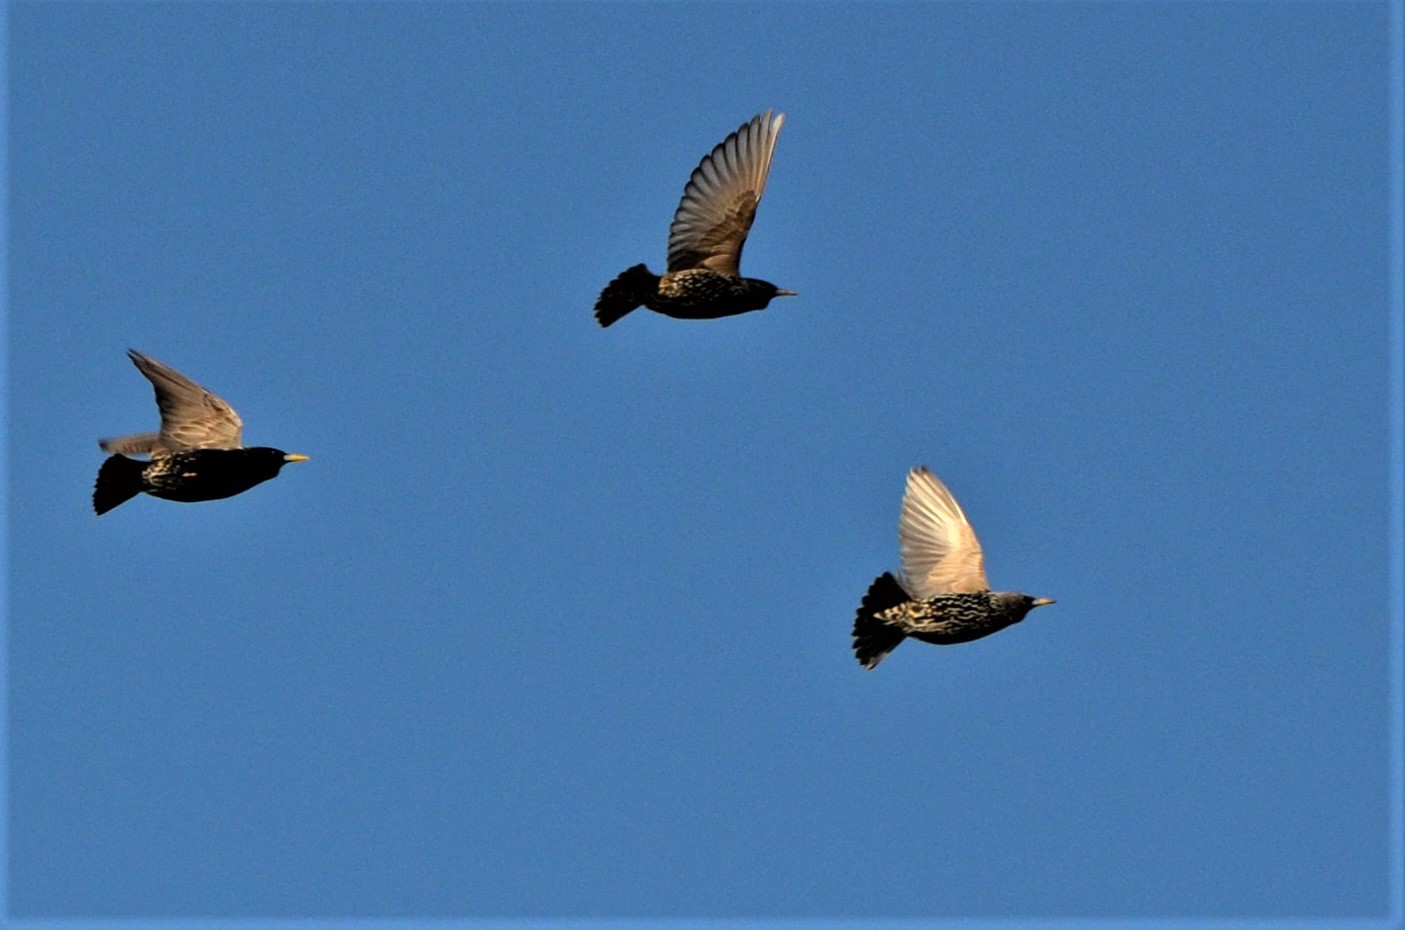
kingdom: Animalia
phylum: Chordata
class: Aves
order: Passeriformes
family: Sturnidae
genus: Sturnus
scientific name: Sturnus vulgaris
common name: Common starling
